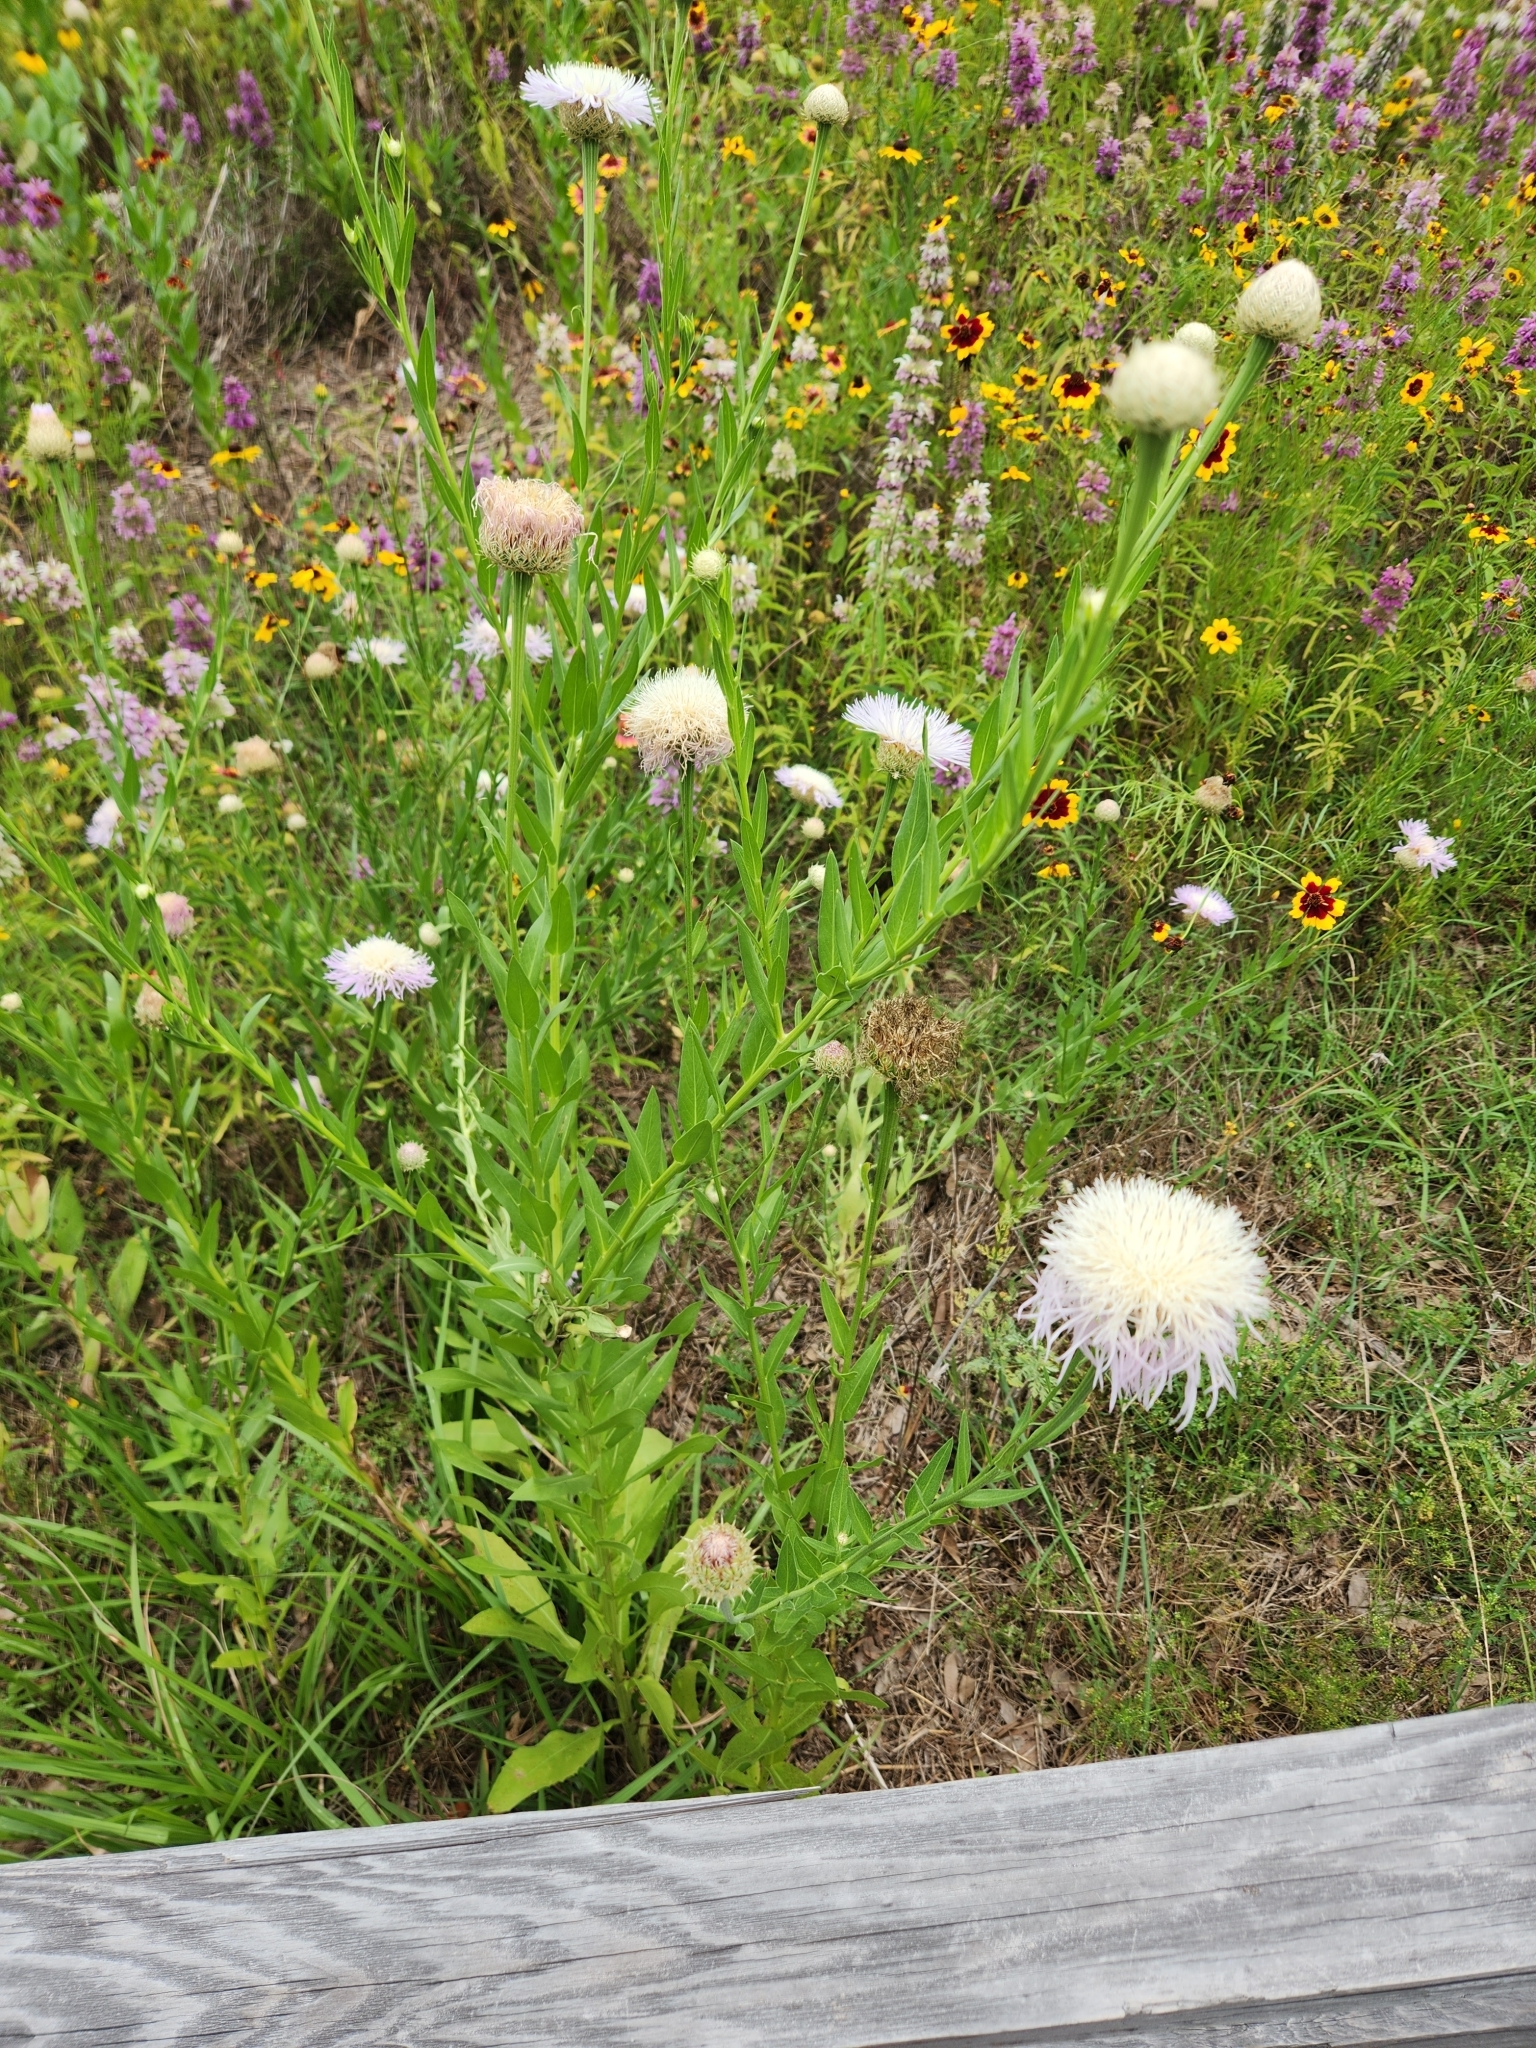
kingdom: Plantae
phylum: Tracheophyta
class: Magnoliopsida
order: Asterales
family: Asteraceae
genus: Plectocephalus
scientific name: Plectocephalus americanus
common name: American basket-flower
